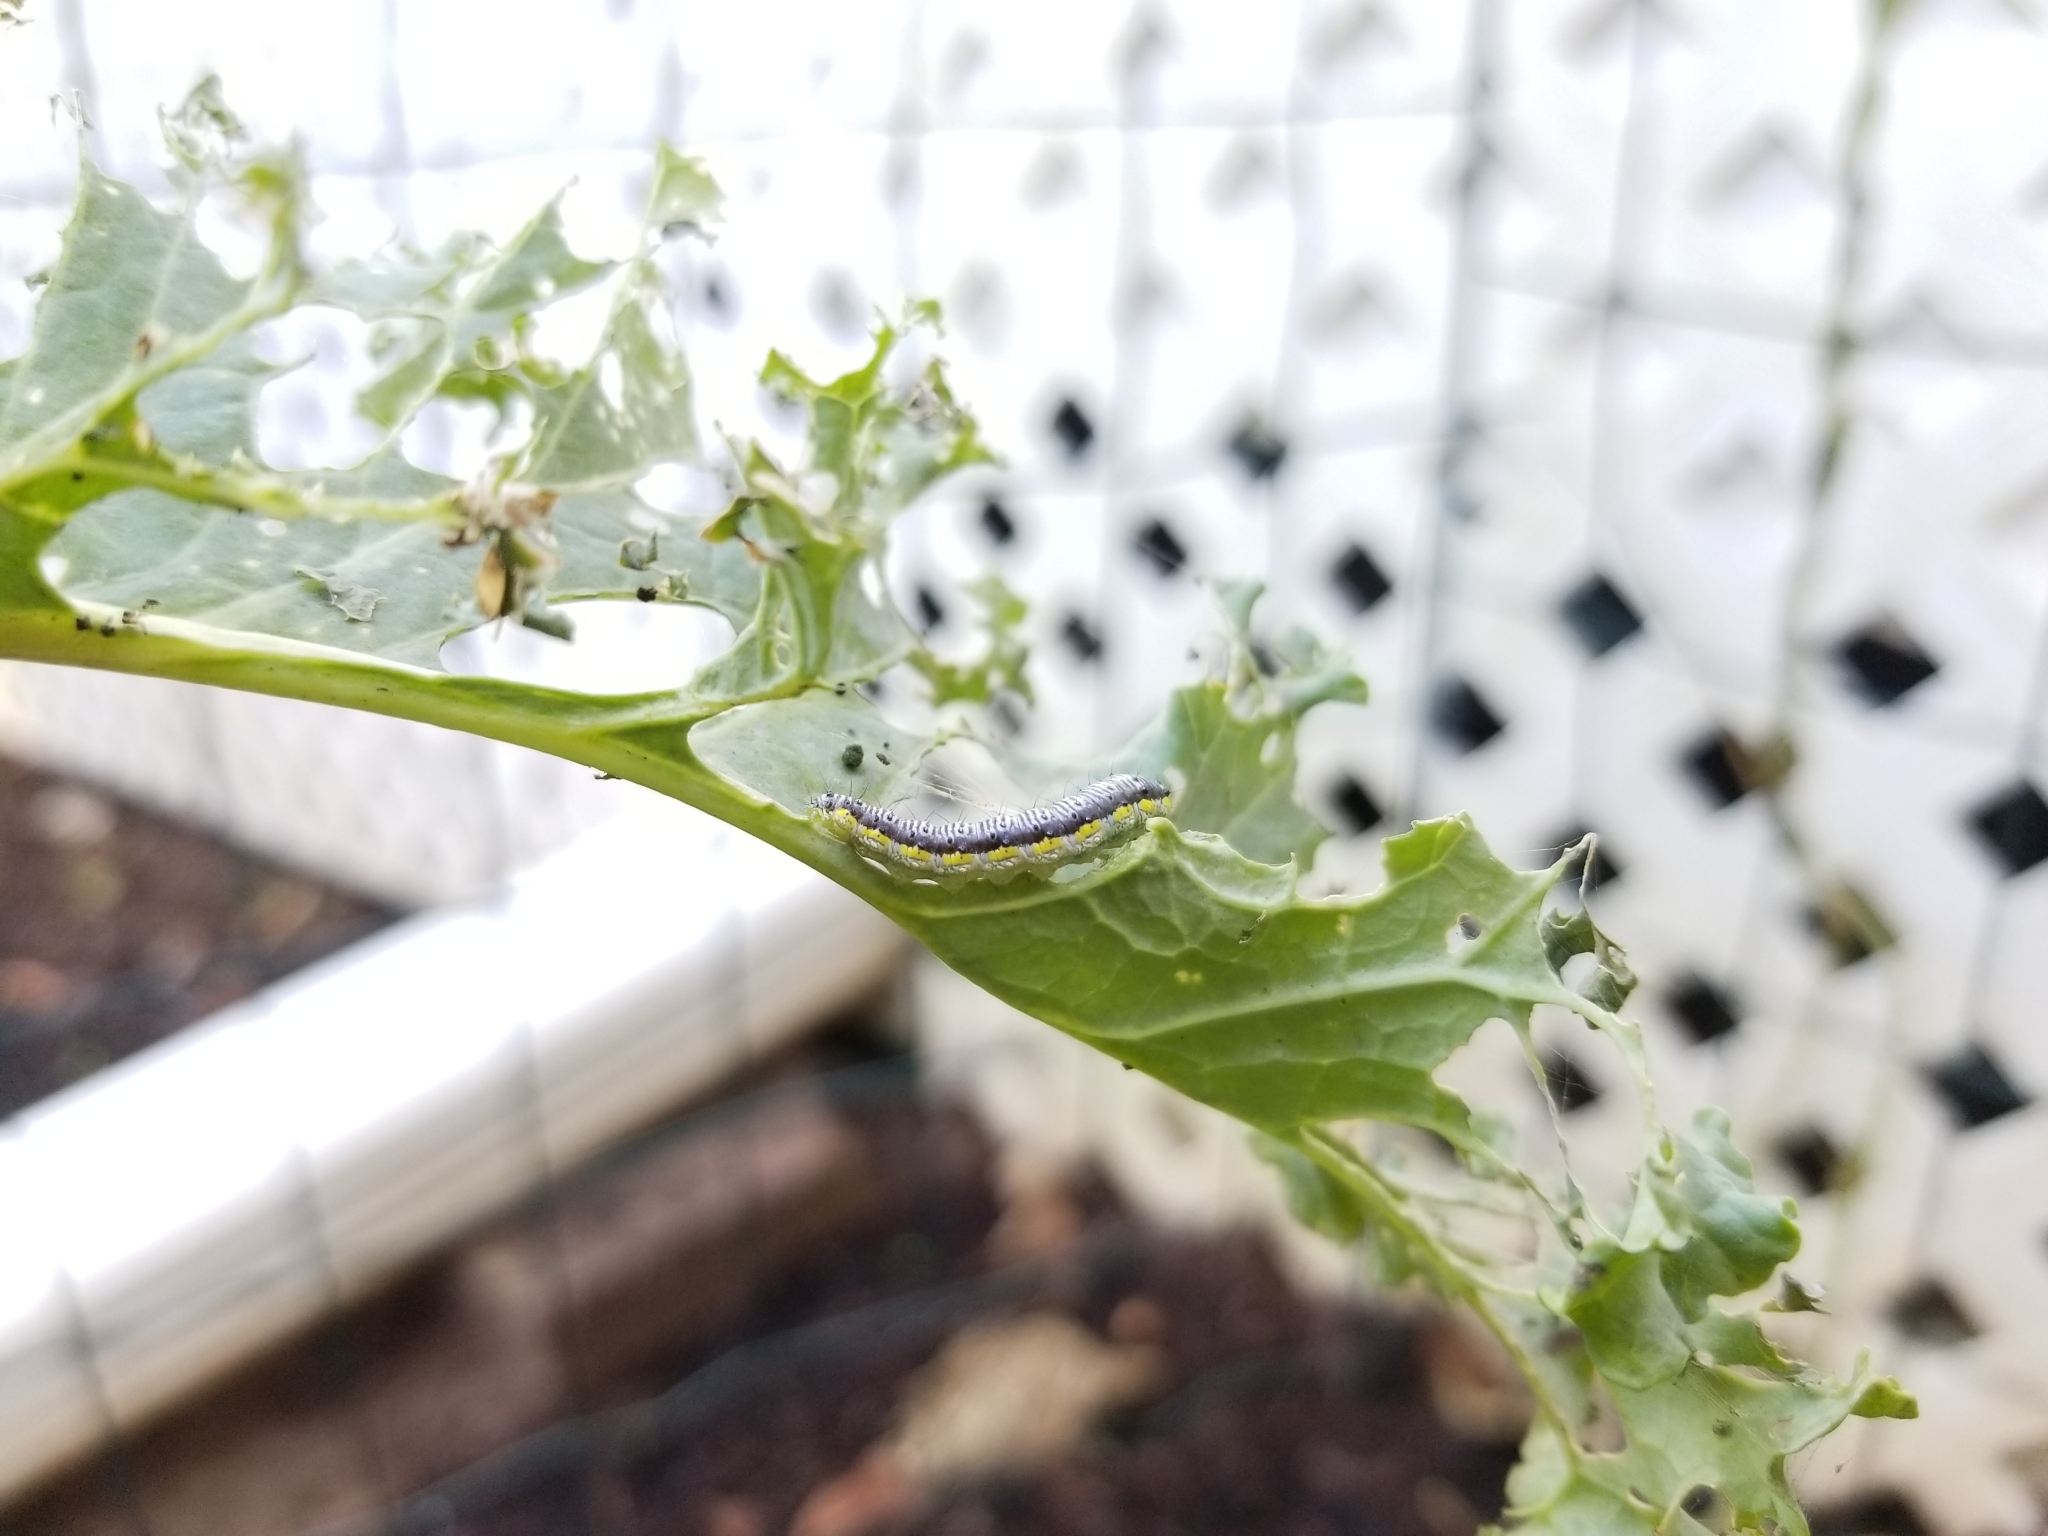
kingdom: Animalia
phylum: Arthropoda
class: Insecta
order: Lepidoptera
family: Crambidae
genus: Evergestis
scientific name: Evergestis rimosalis
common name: Cross-striped cabbageworm moth
